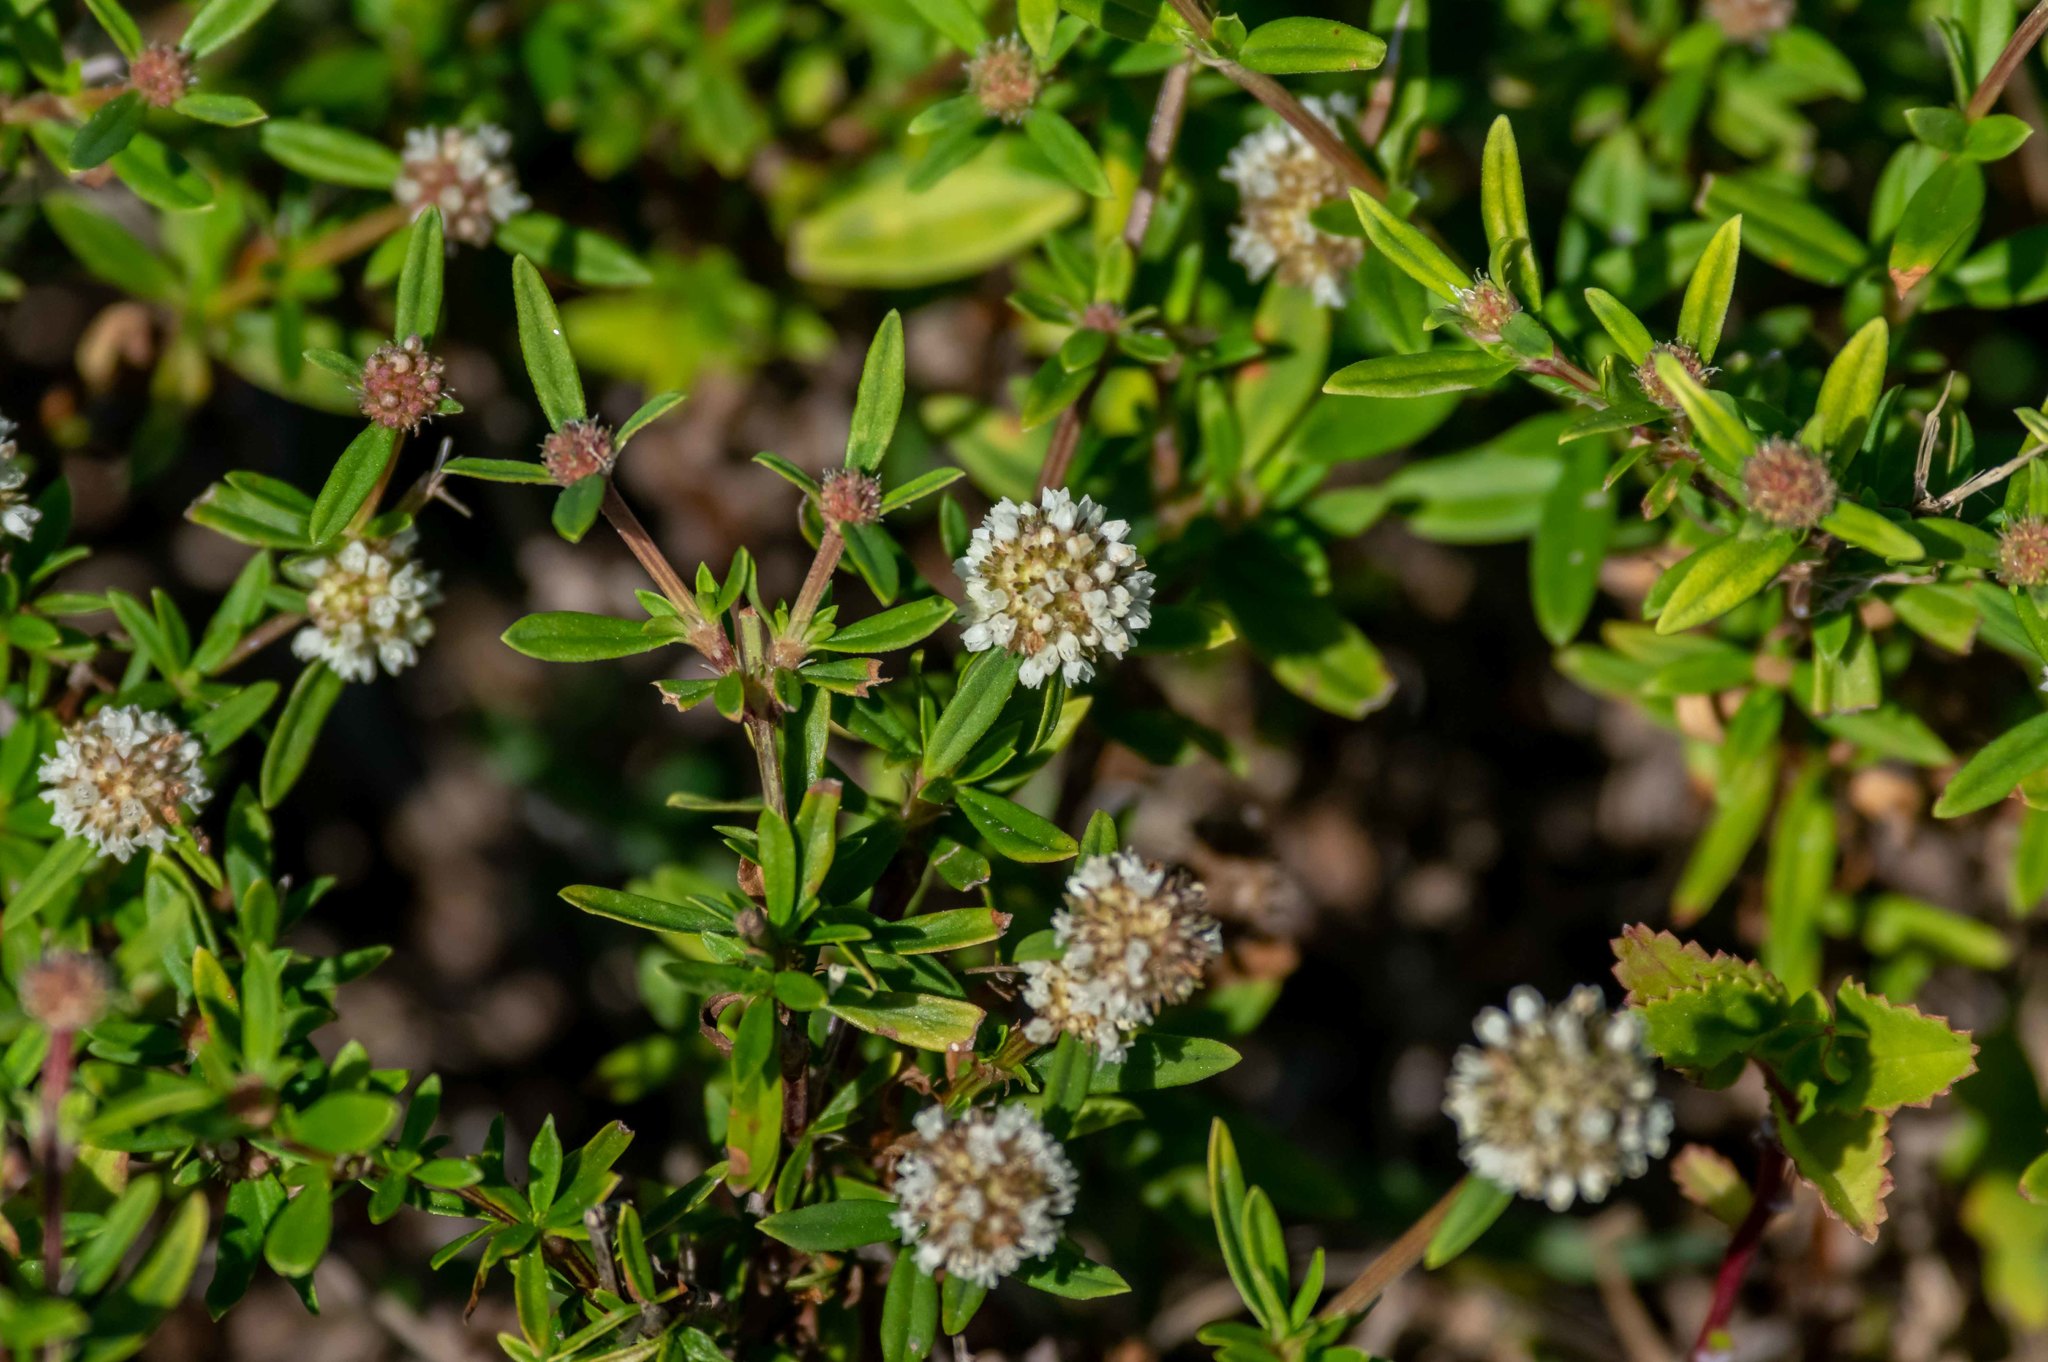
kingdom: Plantae
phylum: Tracheophyta
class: Magnoliopsida
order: Gentianales
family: Rubiaceae
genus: Spermacoce
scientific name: Spermacoce verticillata
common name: Shrubby false buttonweed
